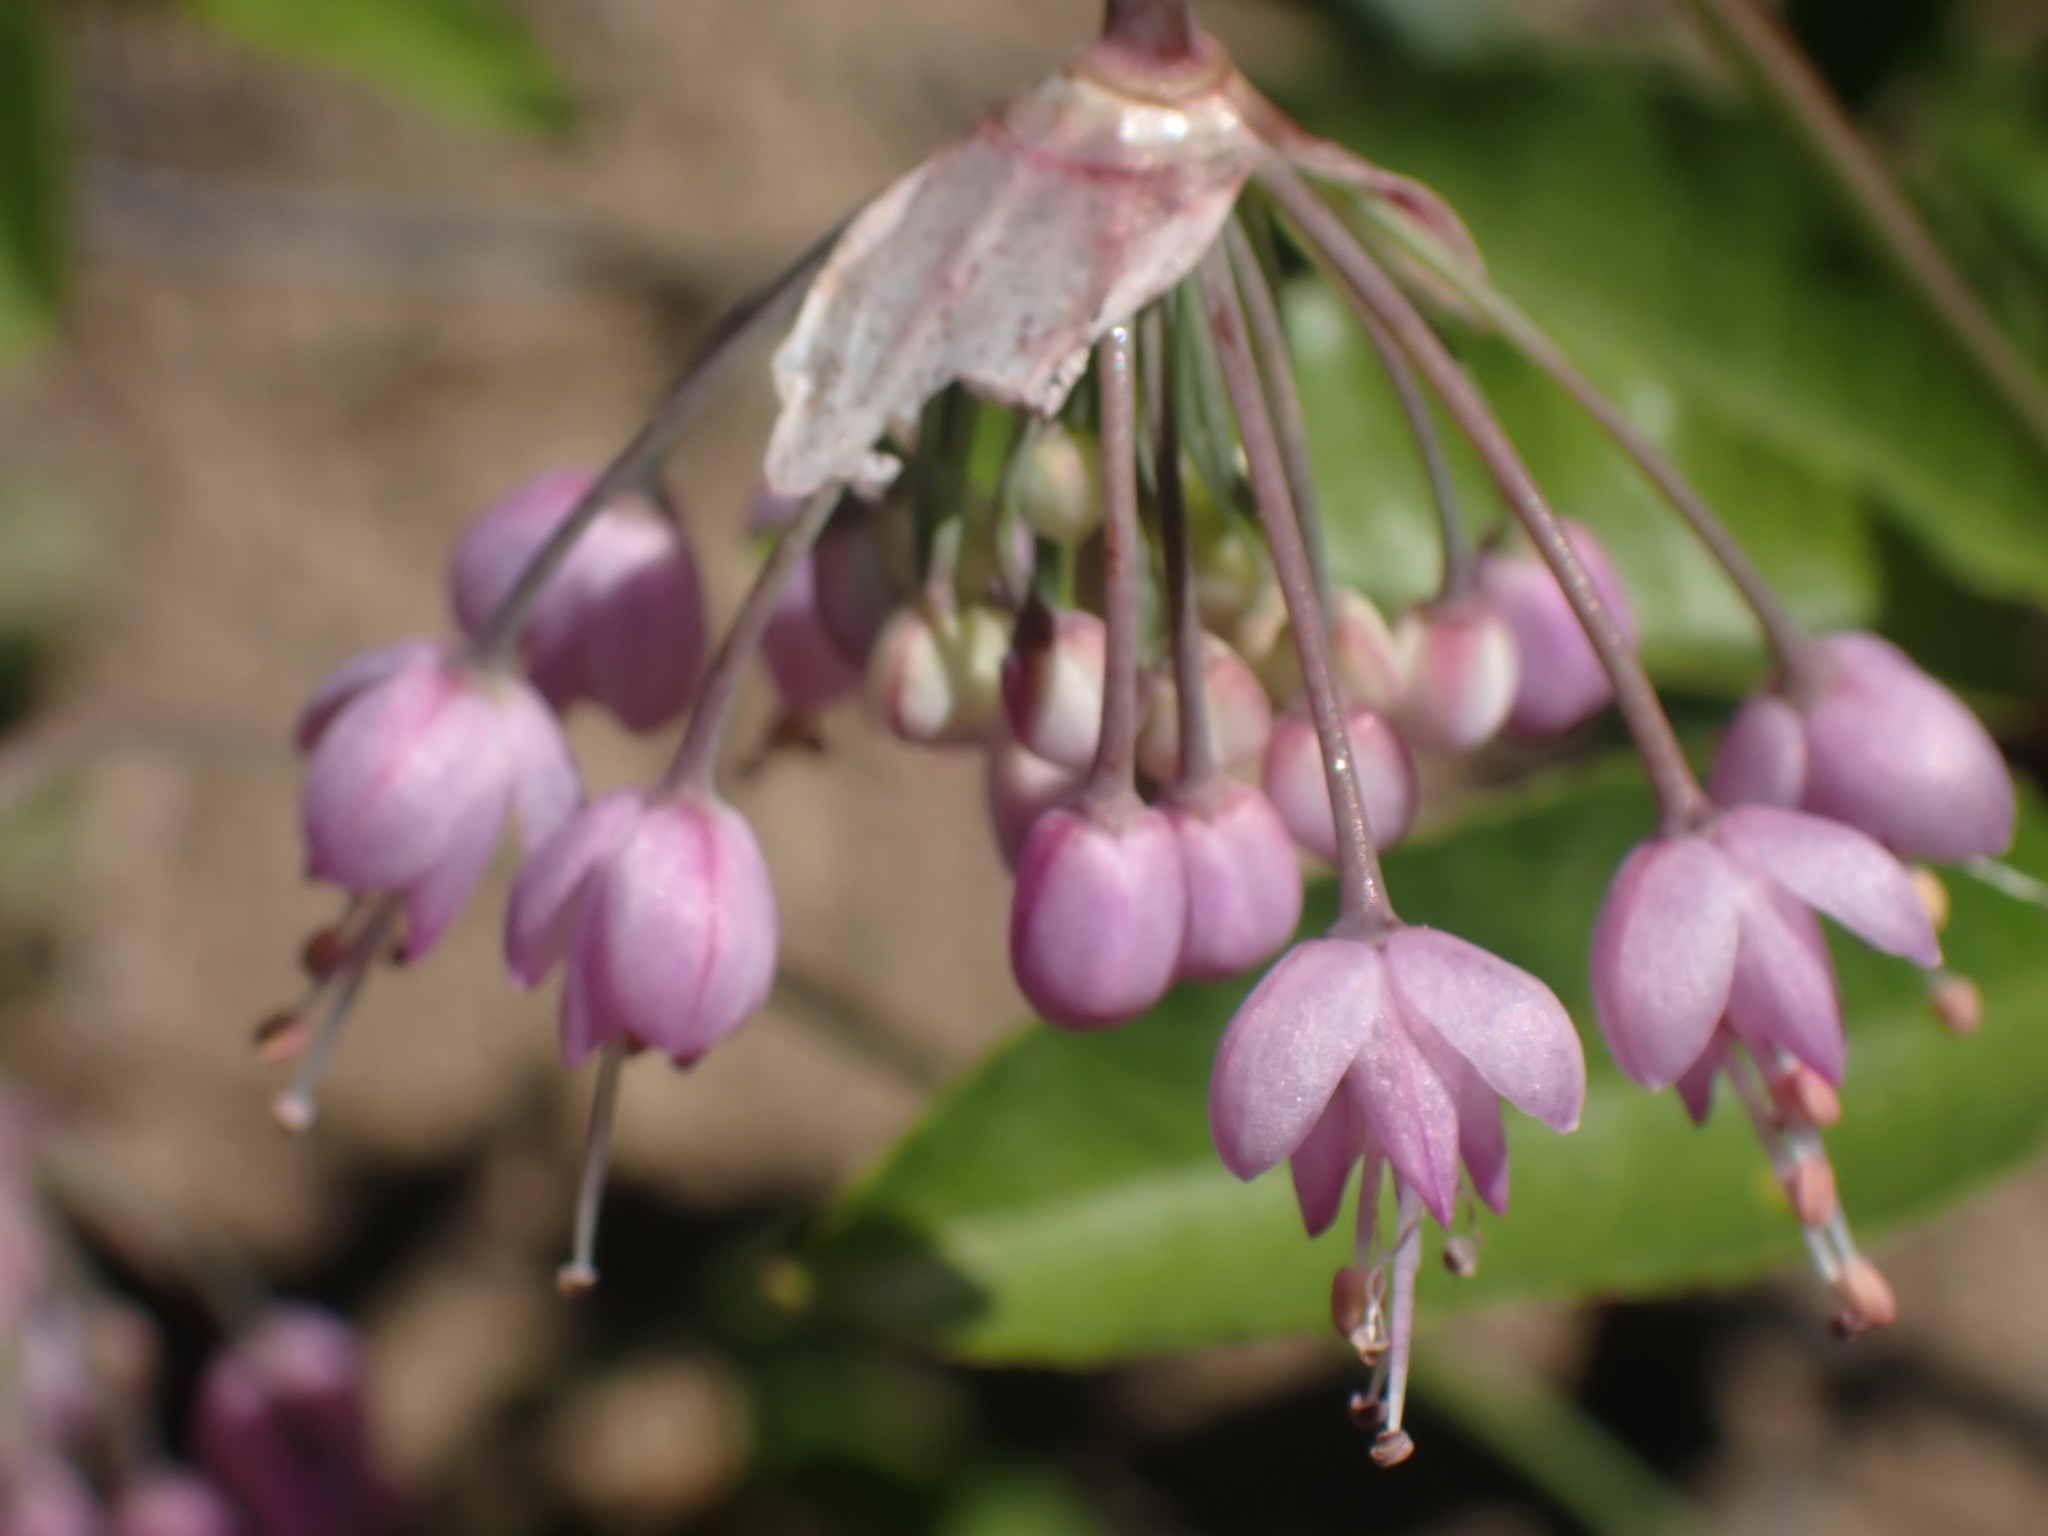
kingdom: Plantae
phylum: Tracheophyta
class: Liliopsida
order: Asparagales
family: Amaryllidaceae
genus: Allium
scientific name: Allium cernuum
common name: Nodding onion
